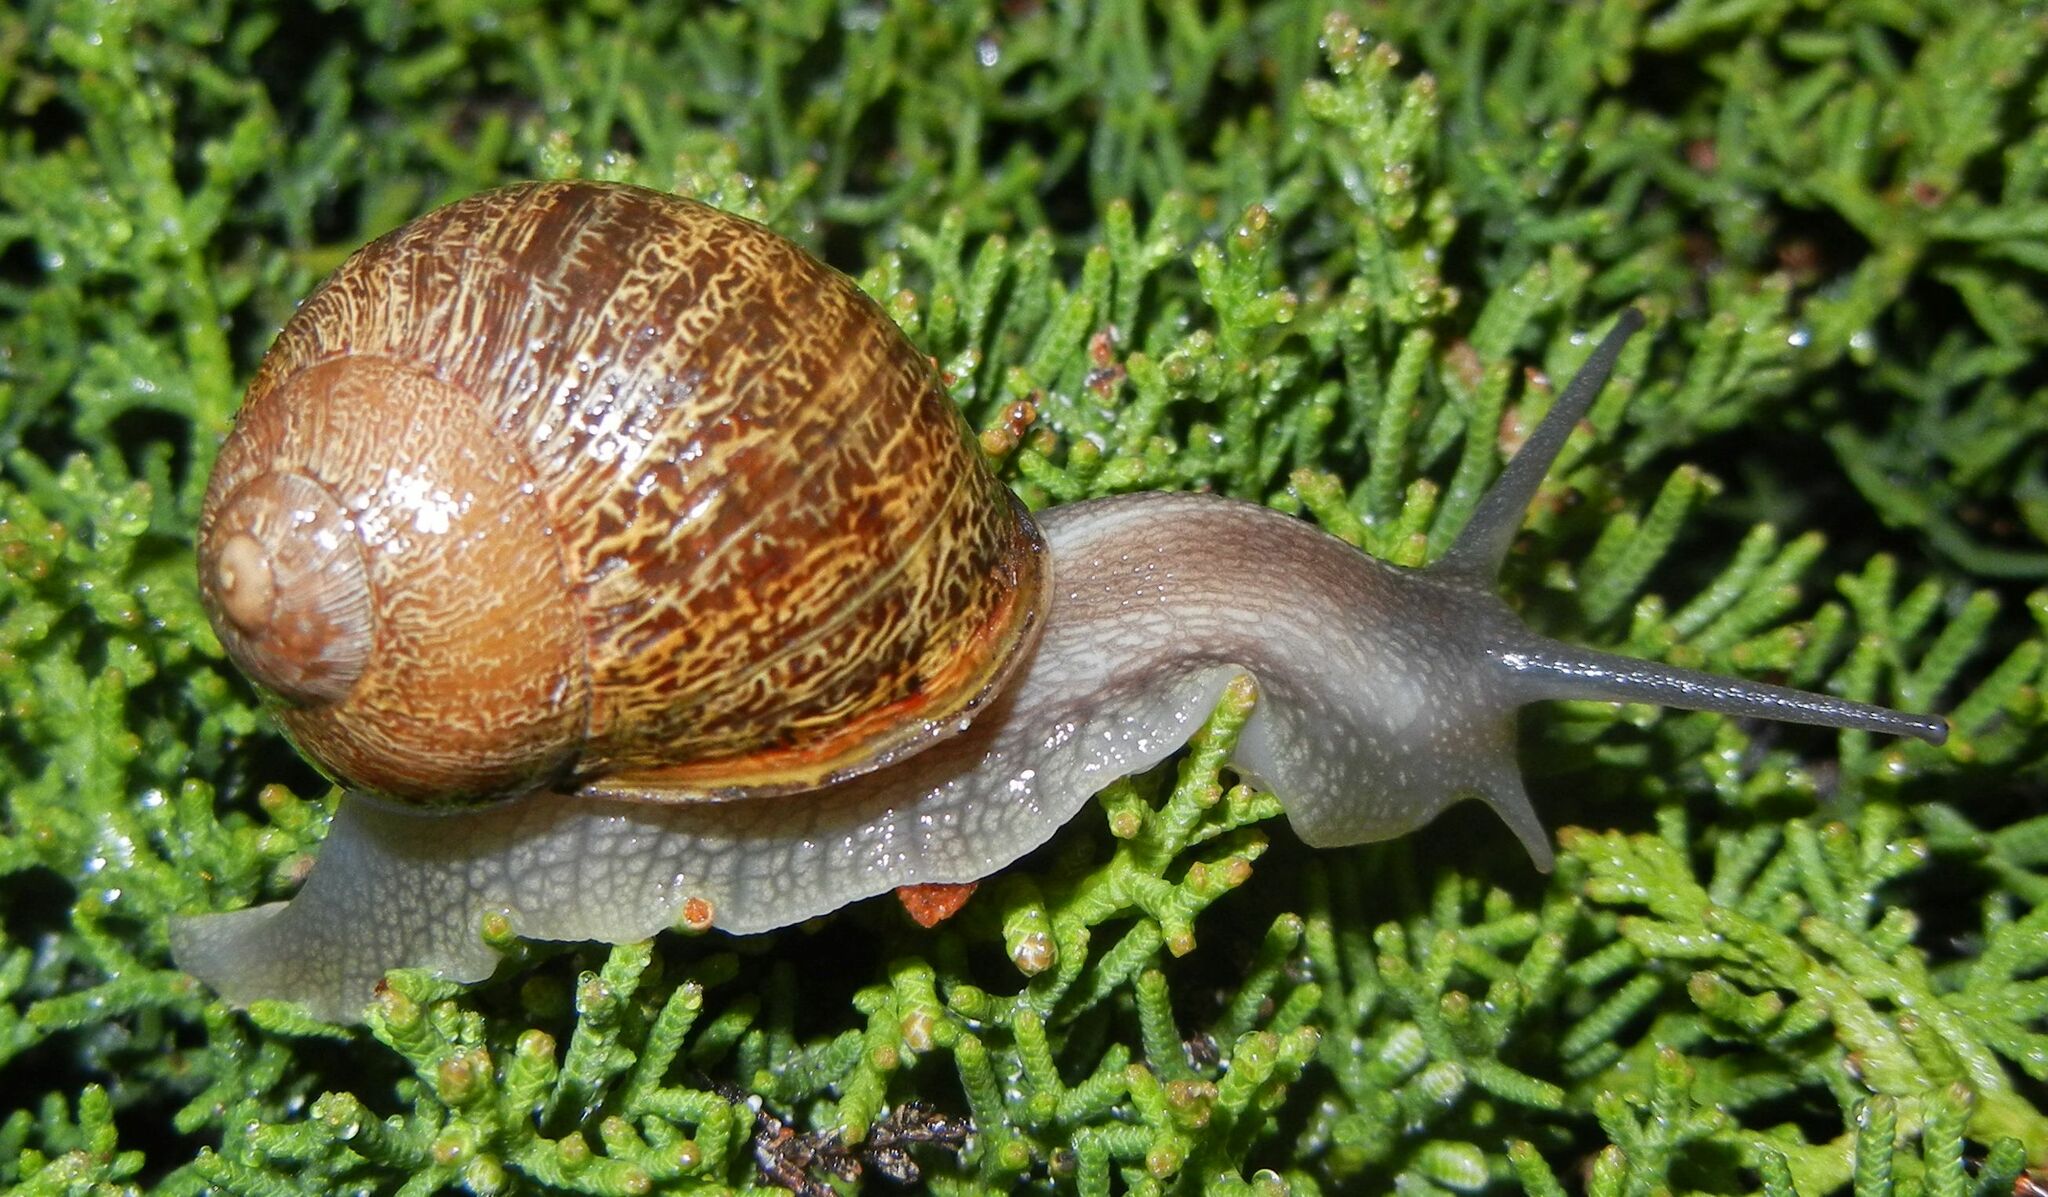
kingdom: Animalia
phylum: Mollusca
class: Gastropoda
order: Stylommatophora
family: Helicidae
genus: Cornu
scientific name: Cornu aspersum
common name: Brown garden snail
